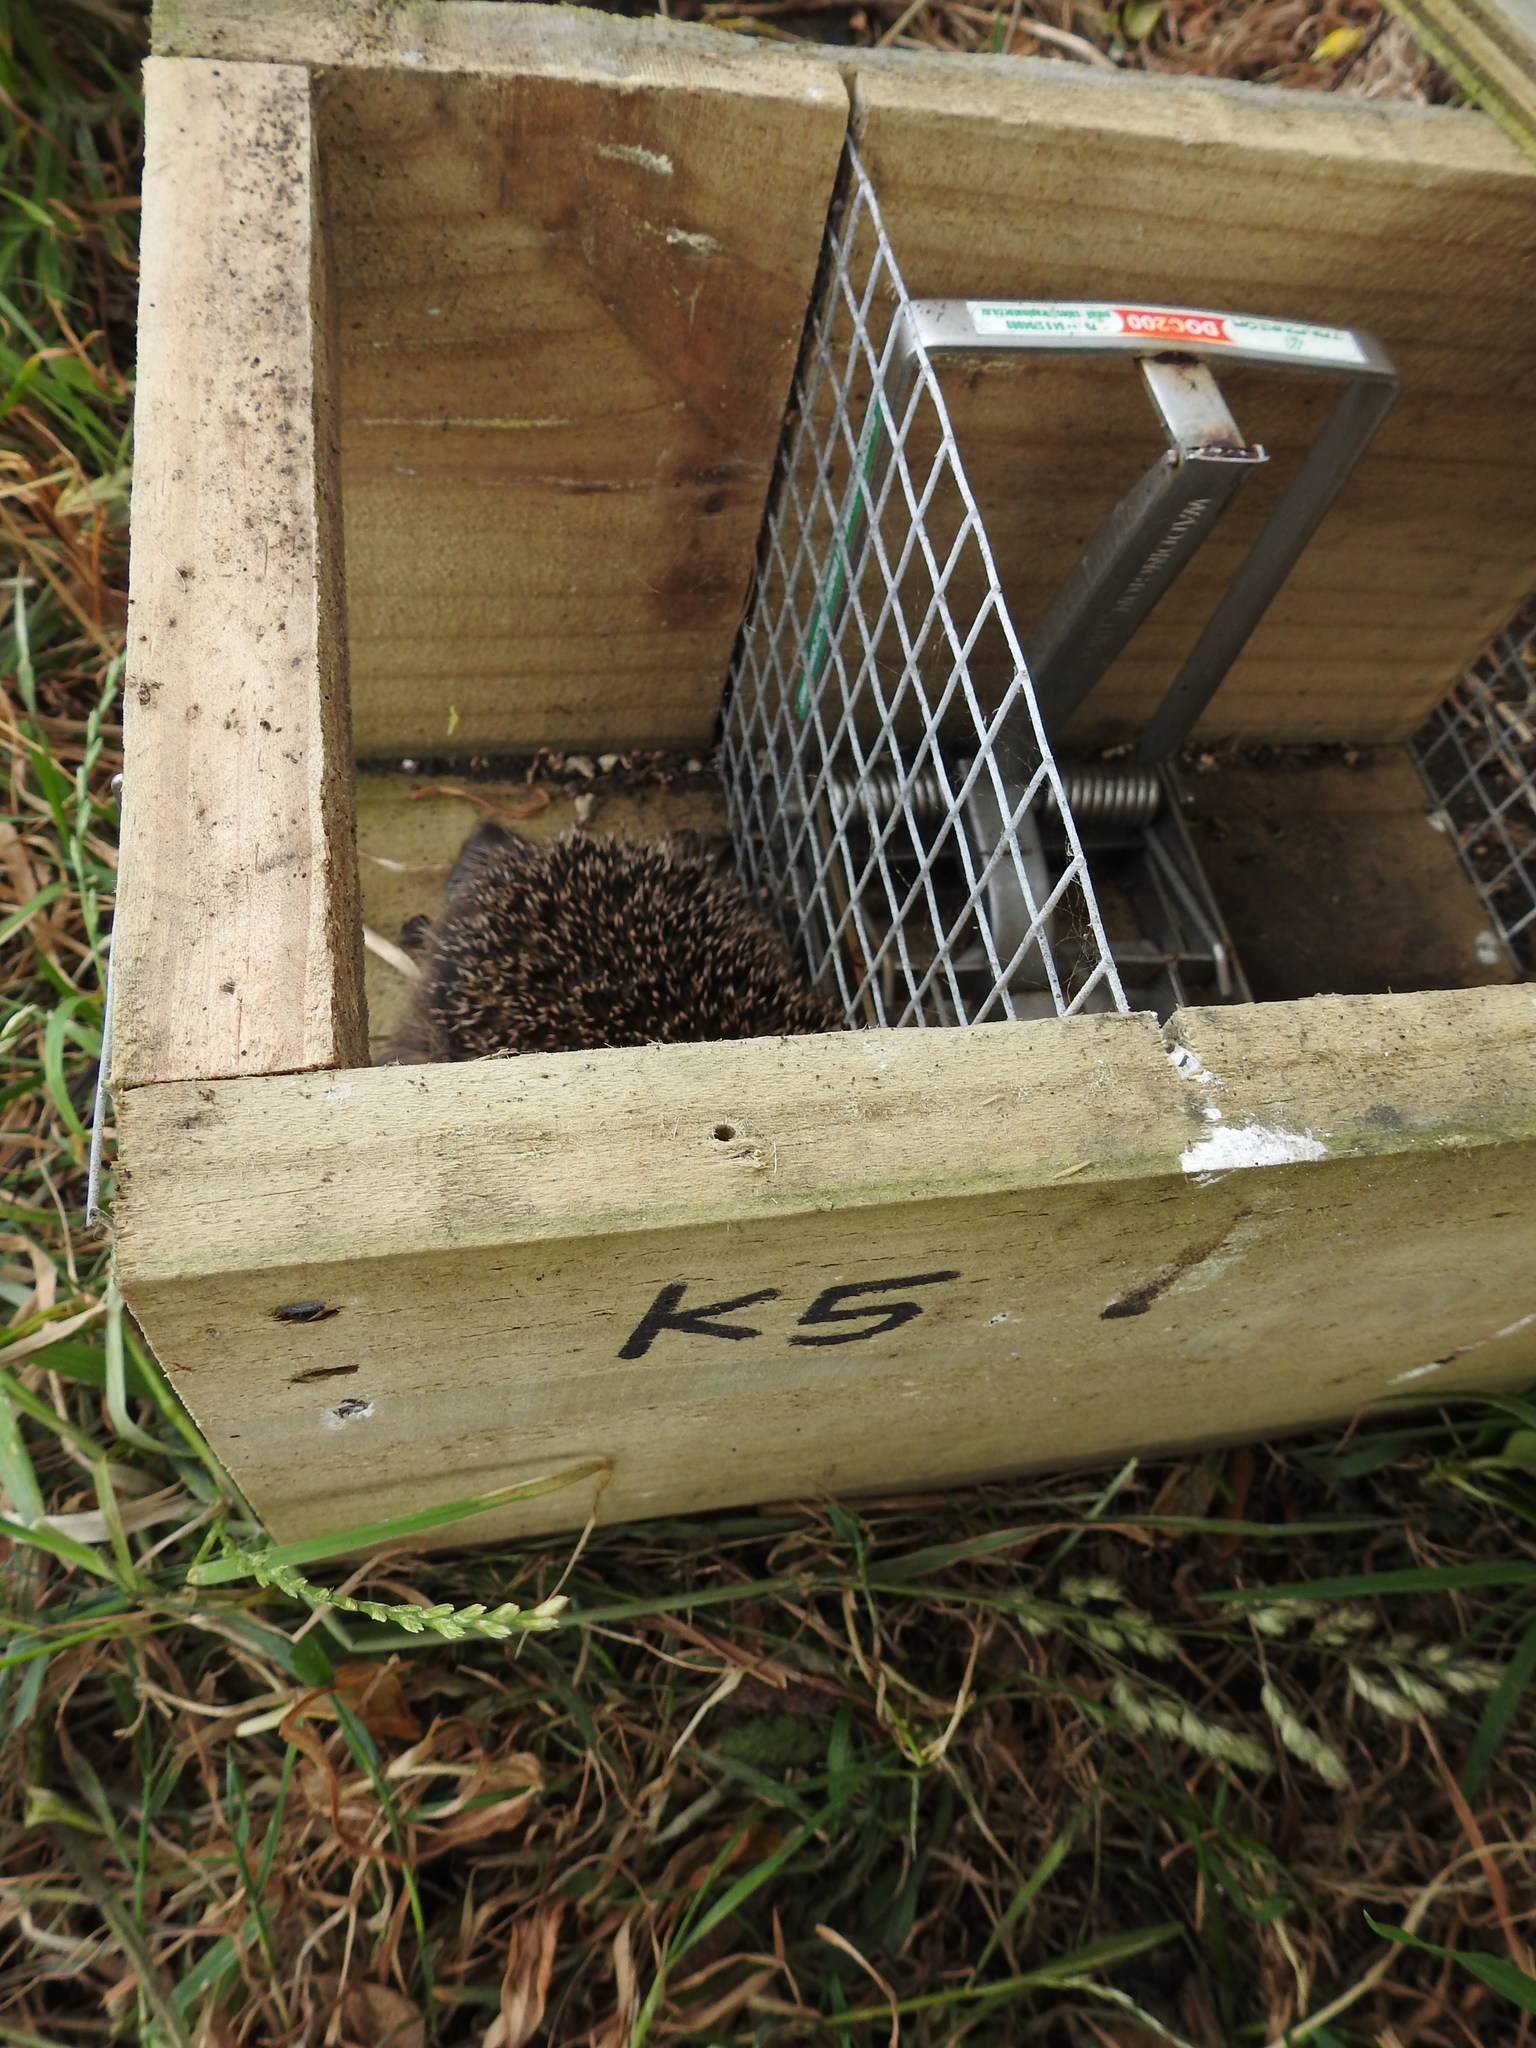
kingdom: Animalia
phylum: Chordata
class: Mammalia
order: Erinaceomorpha
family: Erinaceidae
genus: Erinaceus
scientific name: Erinaceus europaeus
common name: West european hedgehog
